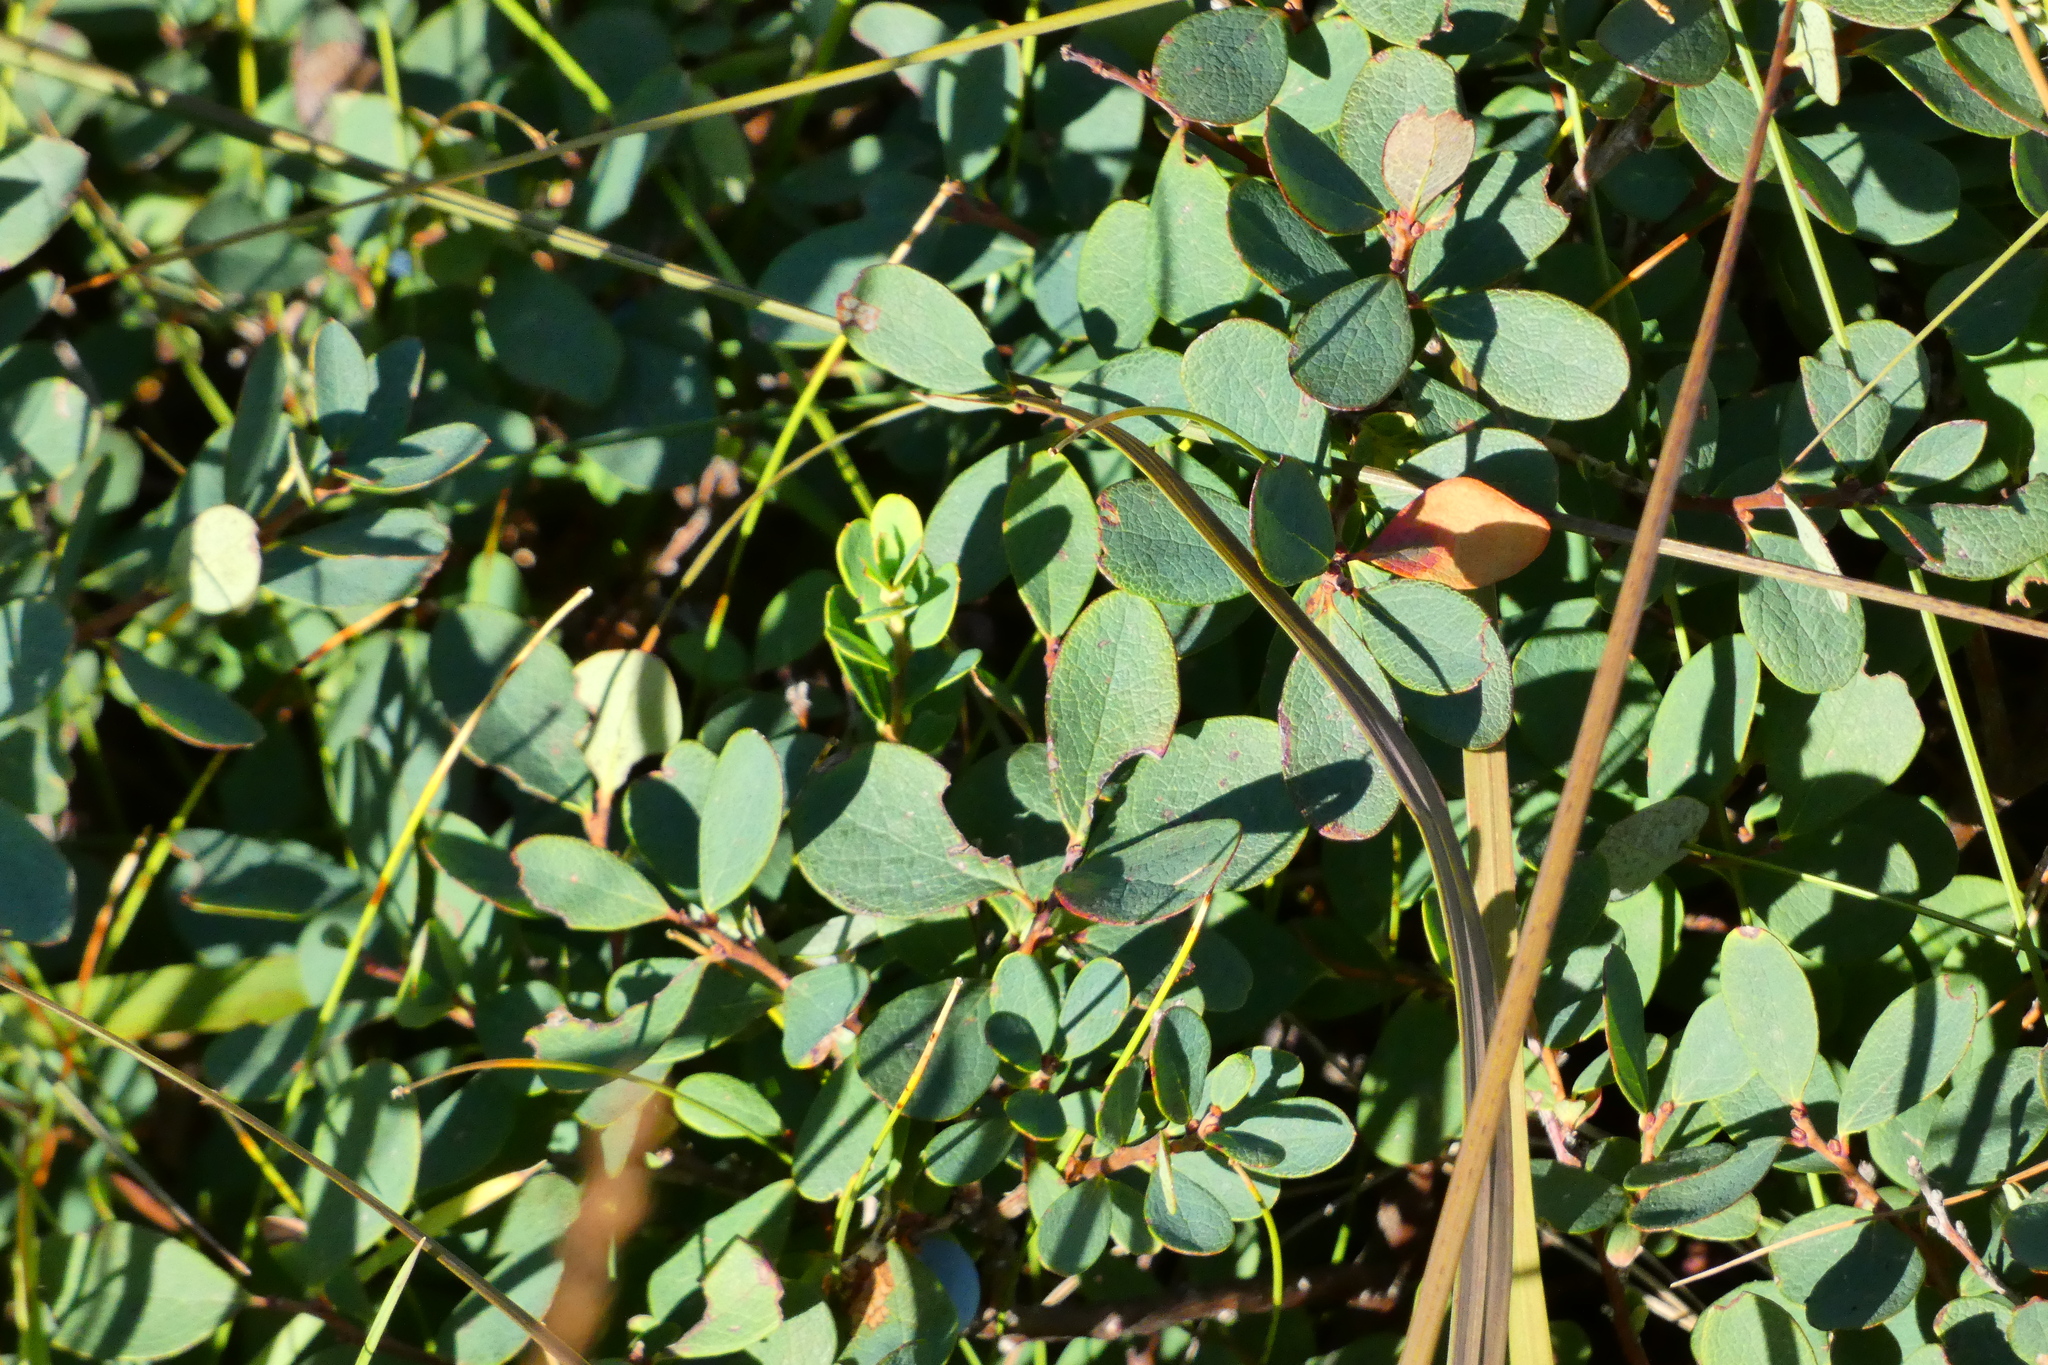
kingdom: Plantae
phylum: Tracheophyta
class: Magnoliopsida
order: Ericales
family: Ericaceae
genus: Vaccinium
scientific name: Vaccinium uliginosum
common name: Bog bilberry
